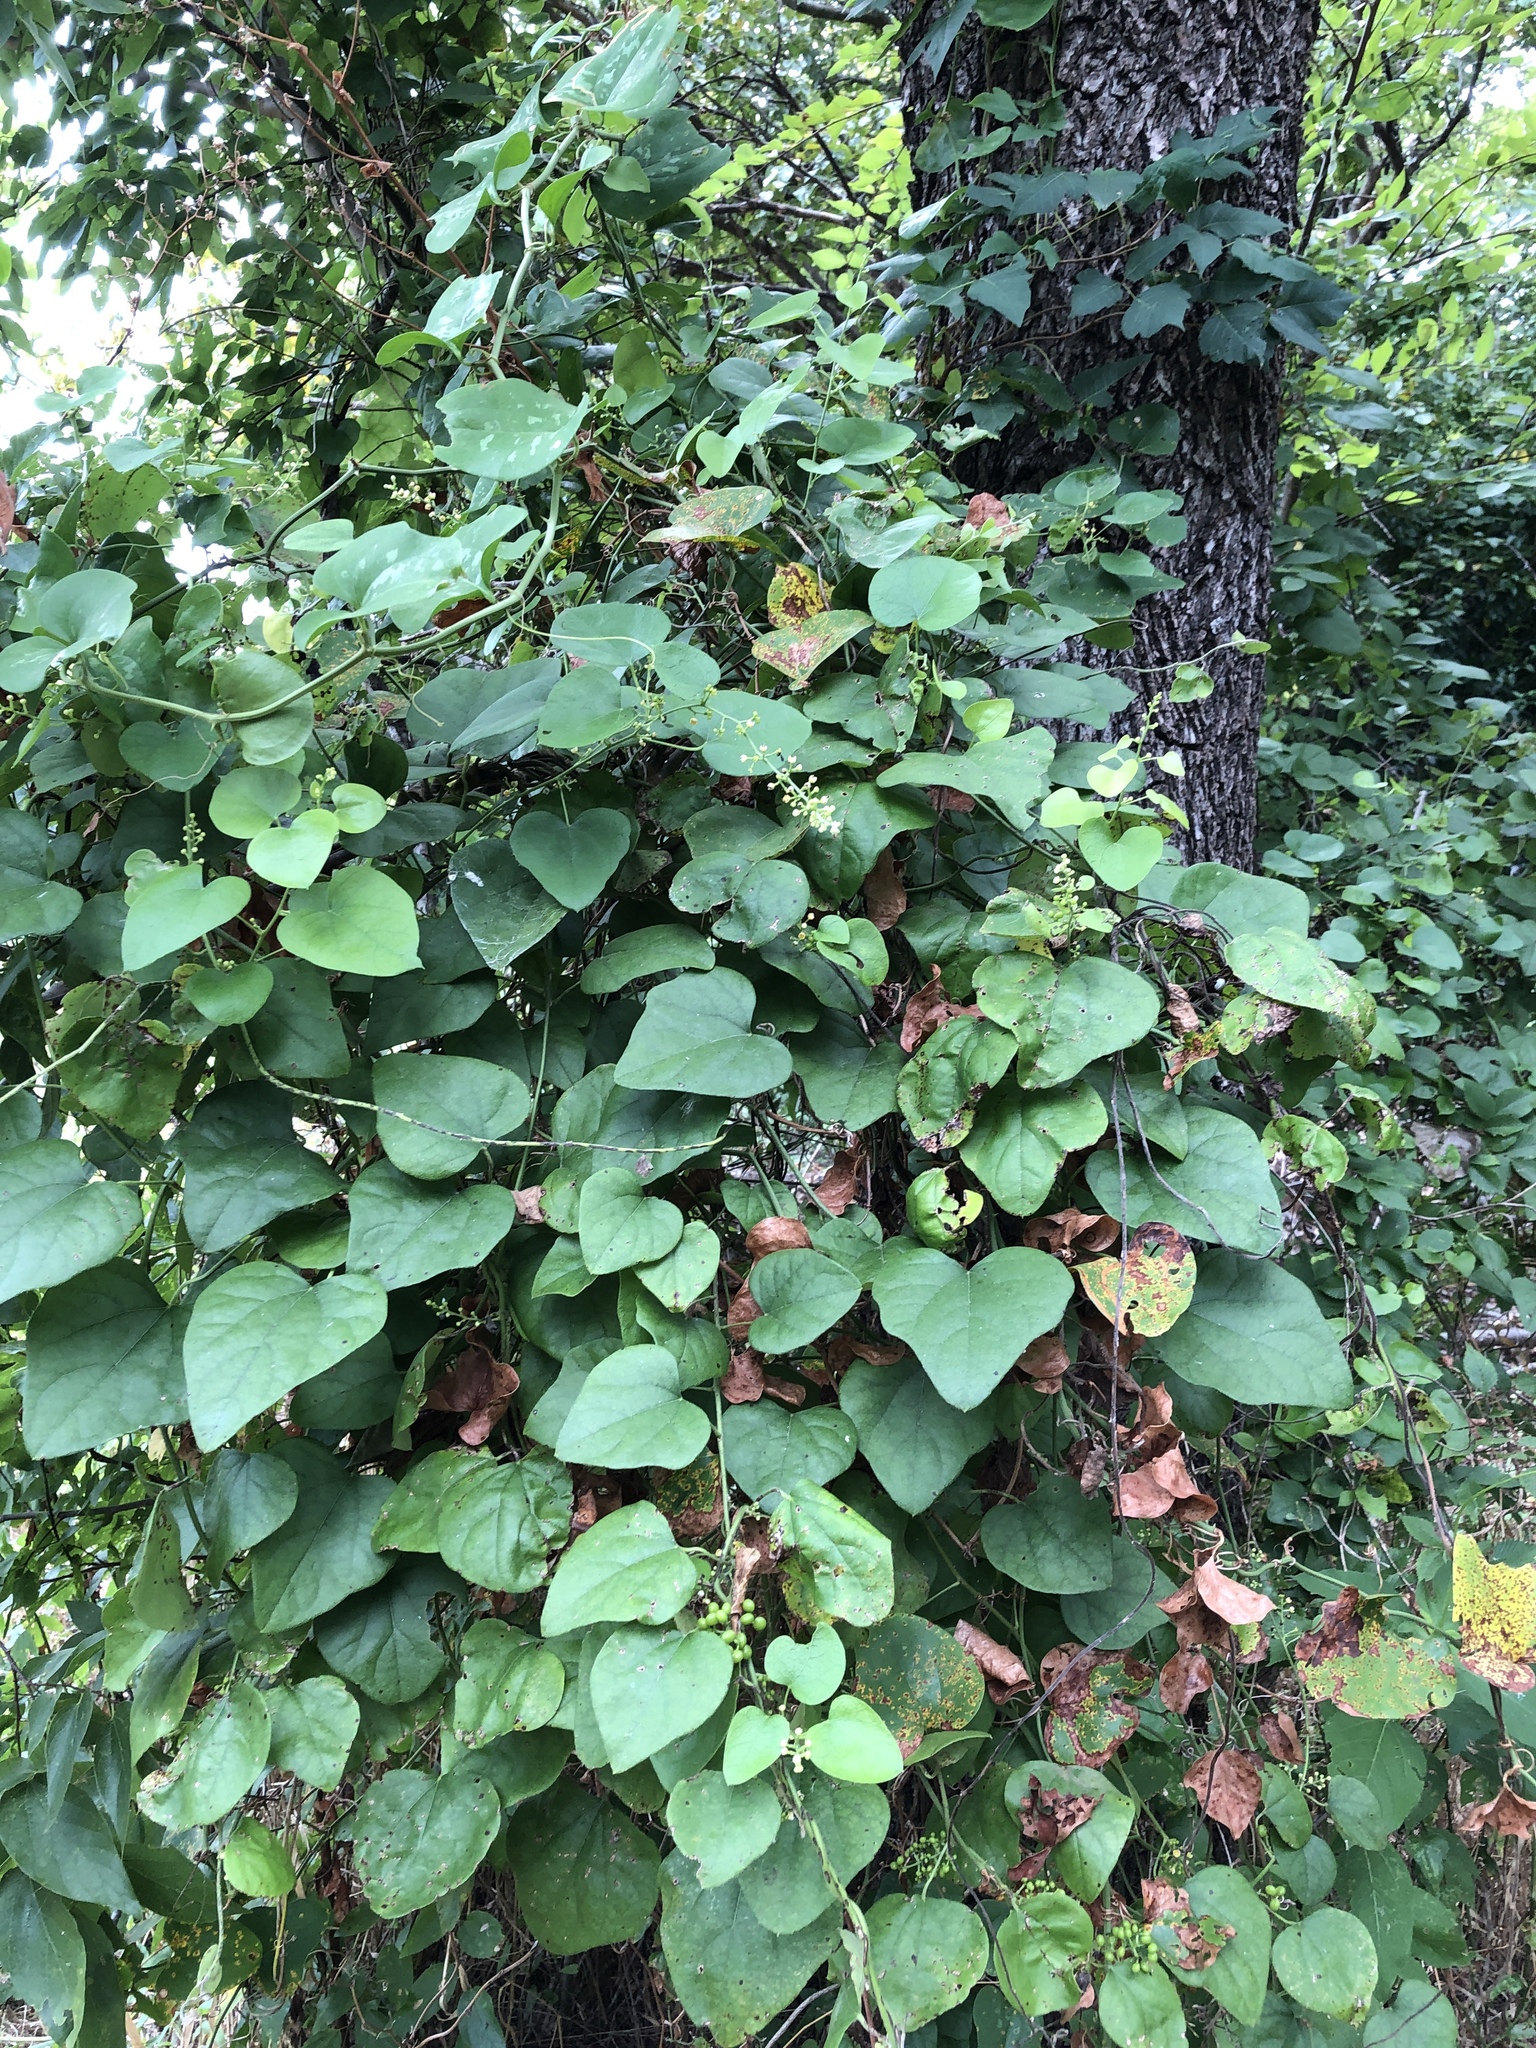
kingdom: Plantae
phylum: Tracheophyta
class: Magnoliopsida
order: Ranunculales
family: Menispermaceae
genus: Cocculus
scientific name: Cocculus carolinus
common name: Carolina moonseed
